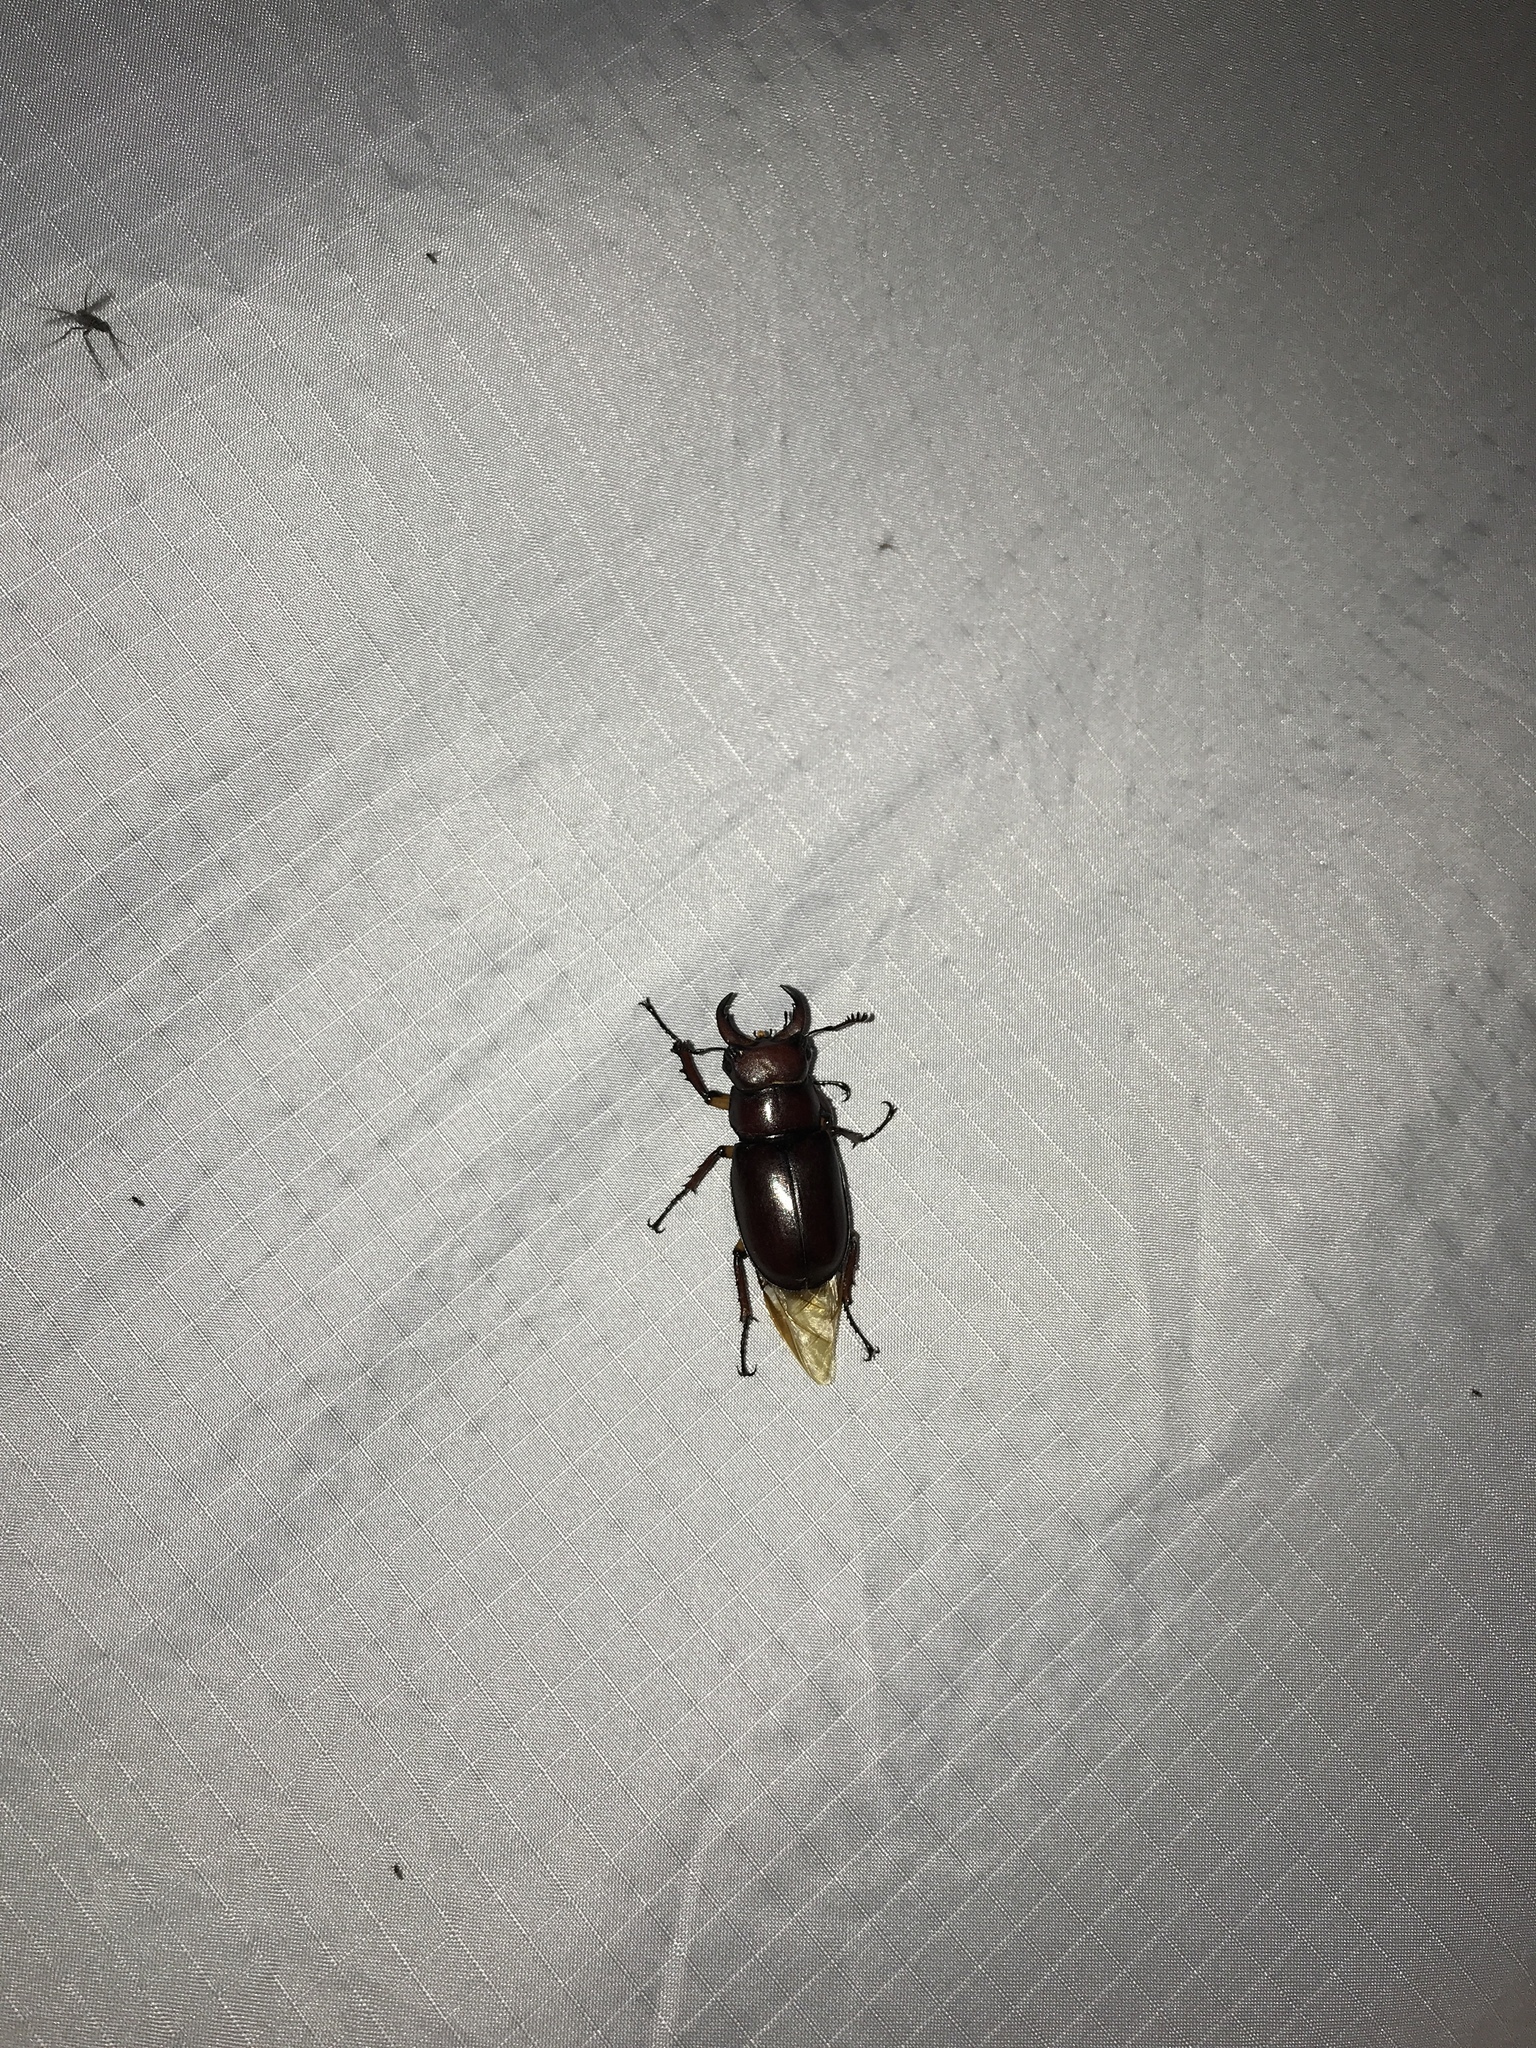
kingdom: Animalia
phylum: Arthropoda
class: Insecta
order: Coleoptera
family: Lucanidae
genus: Lucanus
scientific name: Lucanus capreolus
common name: Stag beetle
